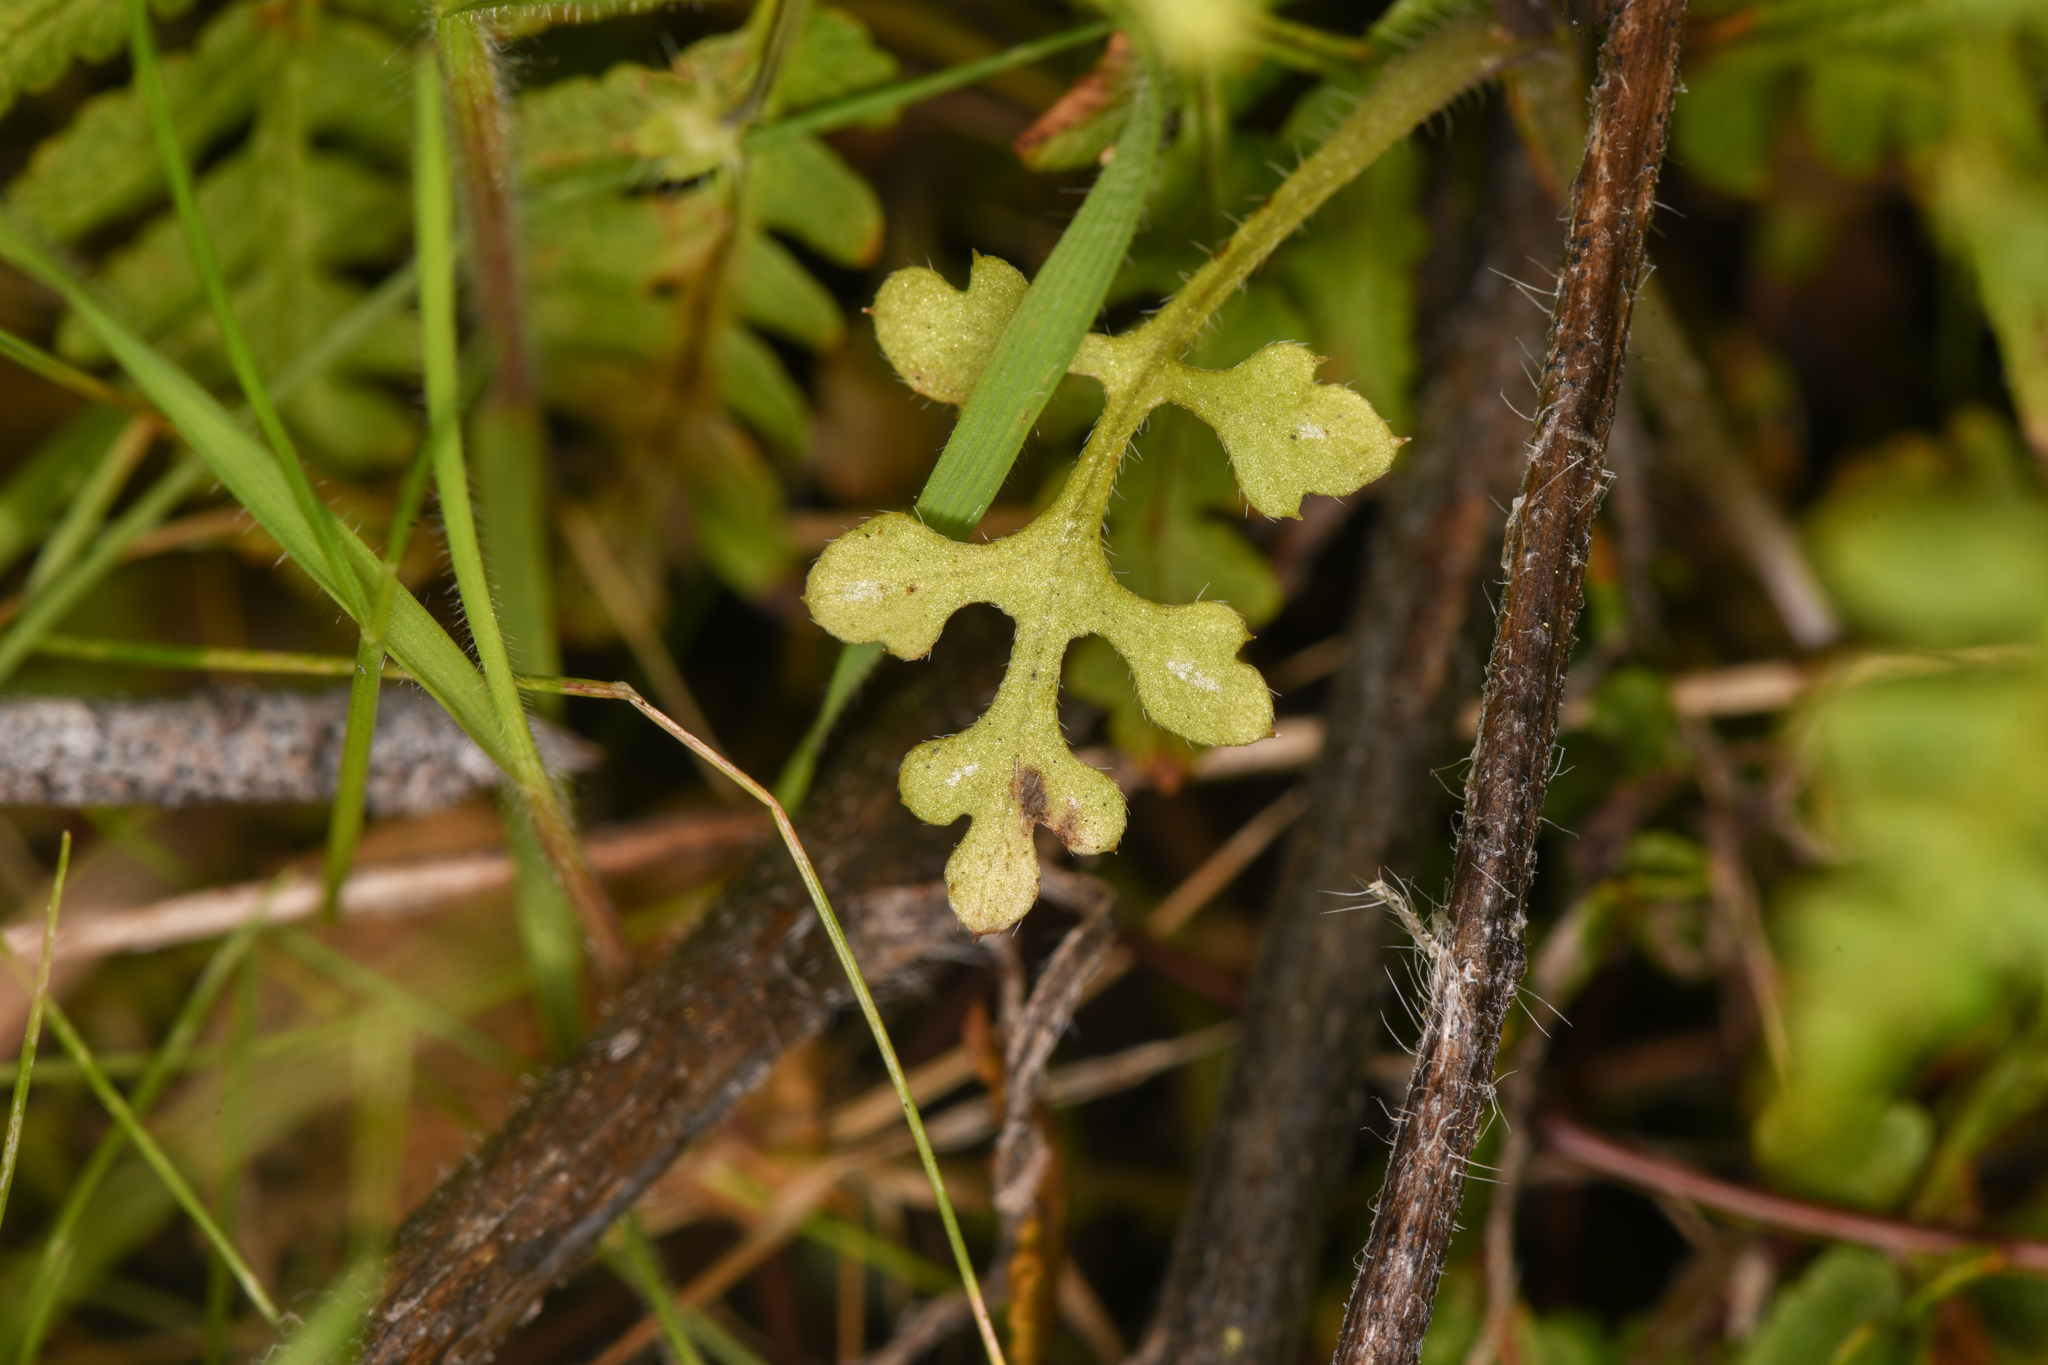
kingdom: Plantae
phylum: Tracheophyta
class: Magnoliopsida
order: Boraginales
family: Hydrophyllaceae
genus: Nemophila
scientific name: Nemophila pulchella
